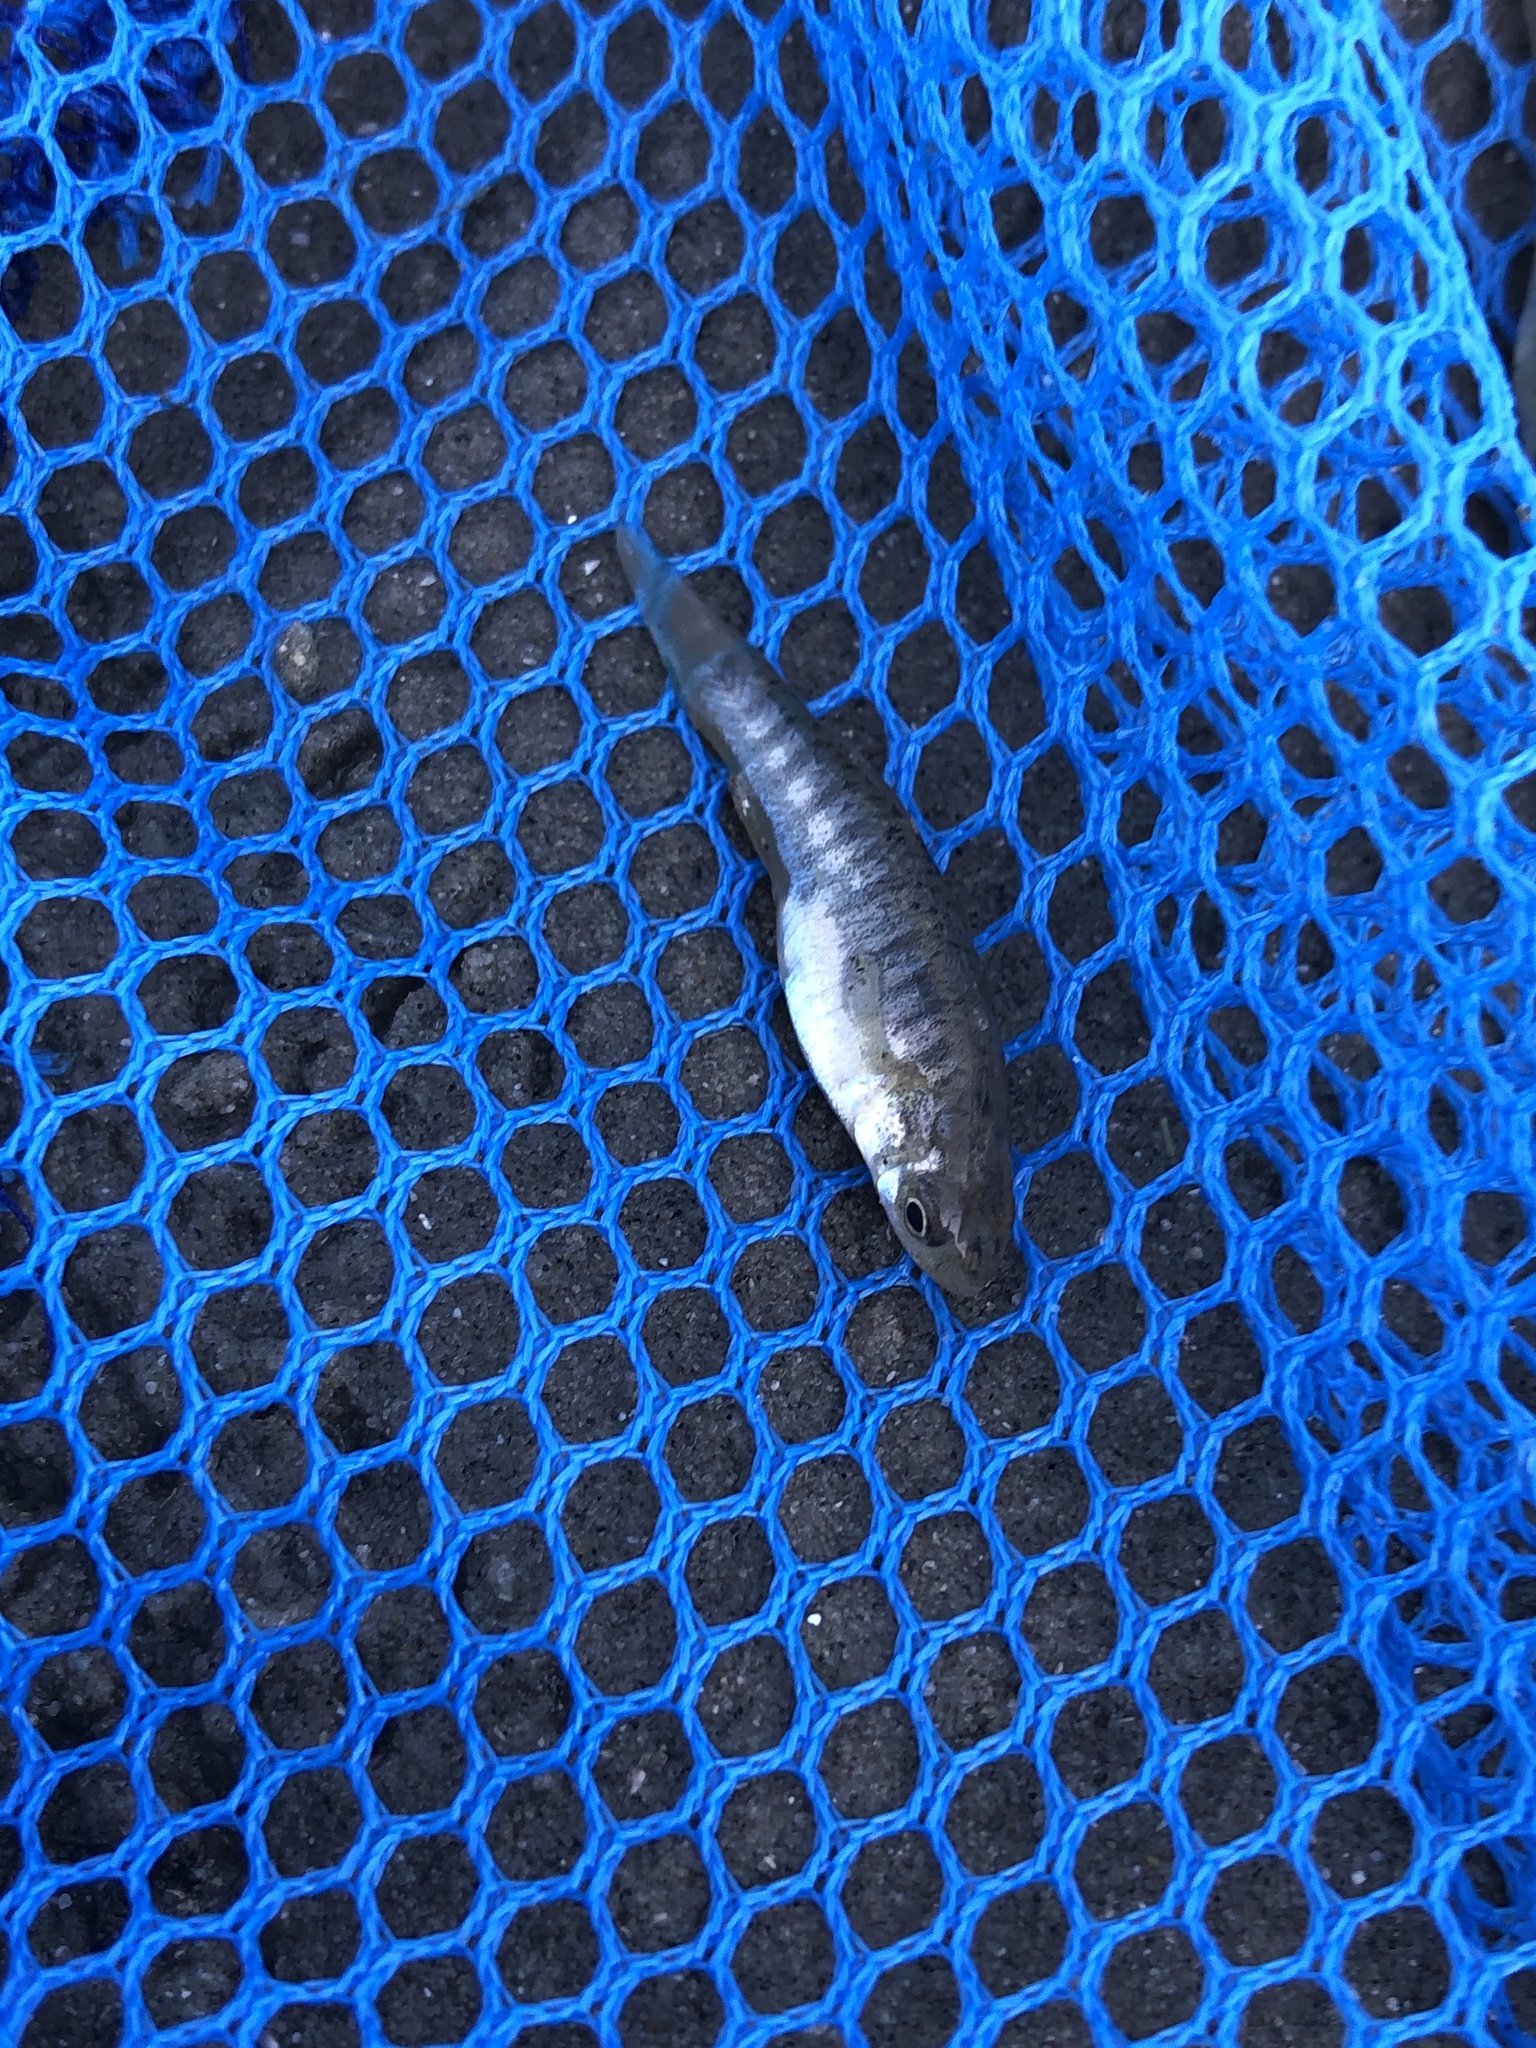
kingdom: Animalia
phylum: Chordata
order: Cyprinodontiformes
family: Fundulidae
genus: Fundulus
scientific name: Fundulus heteroclitus
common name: Mummichog
